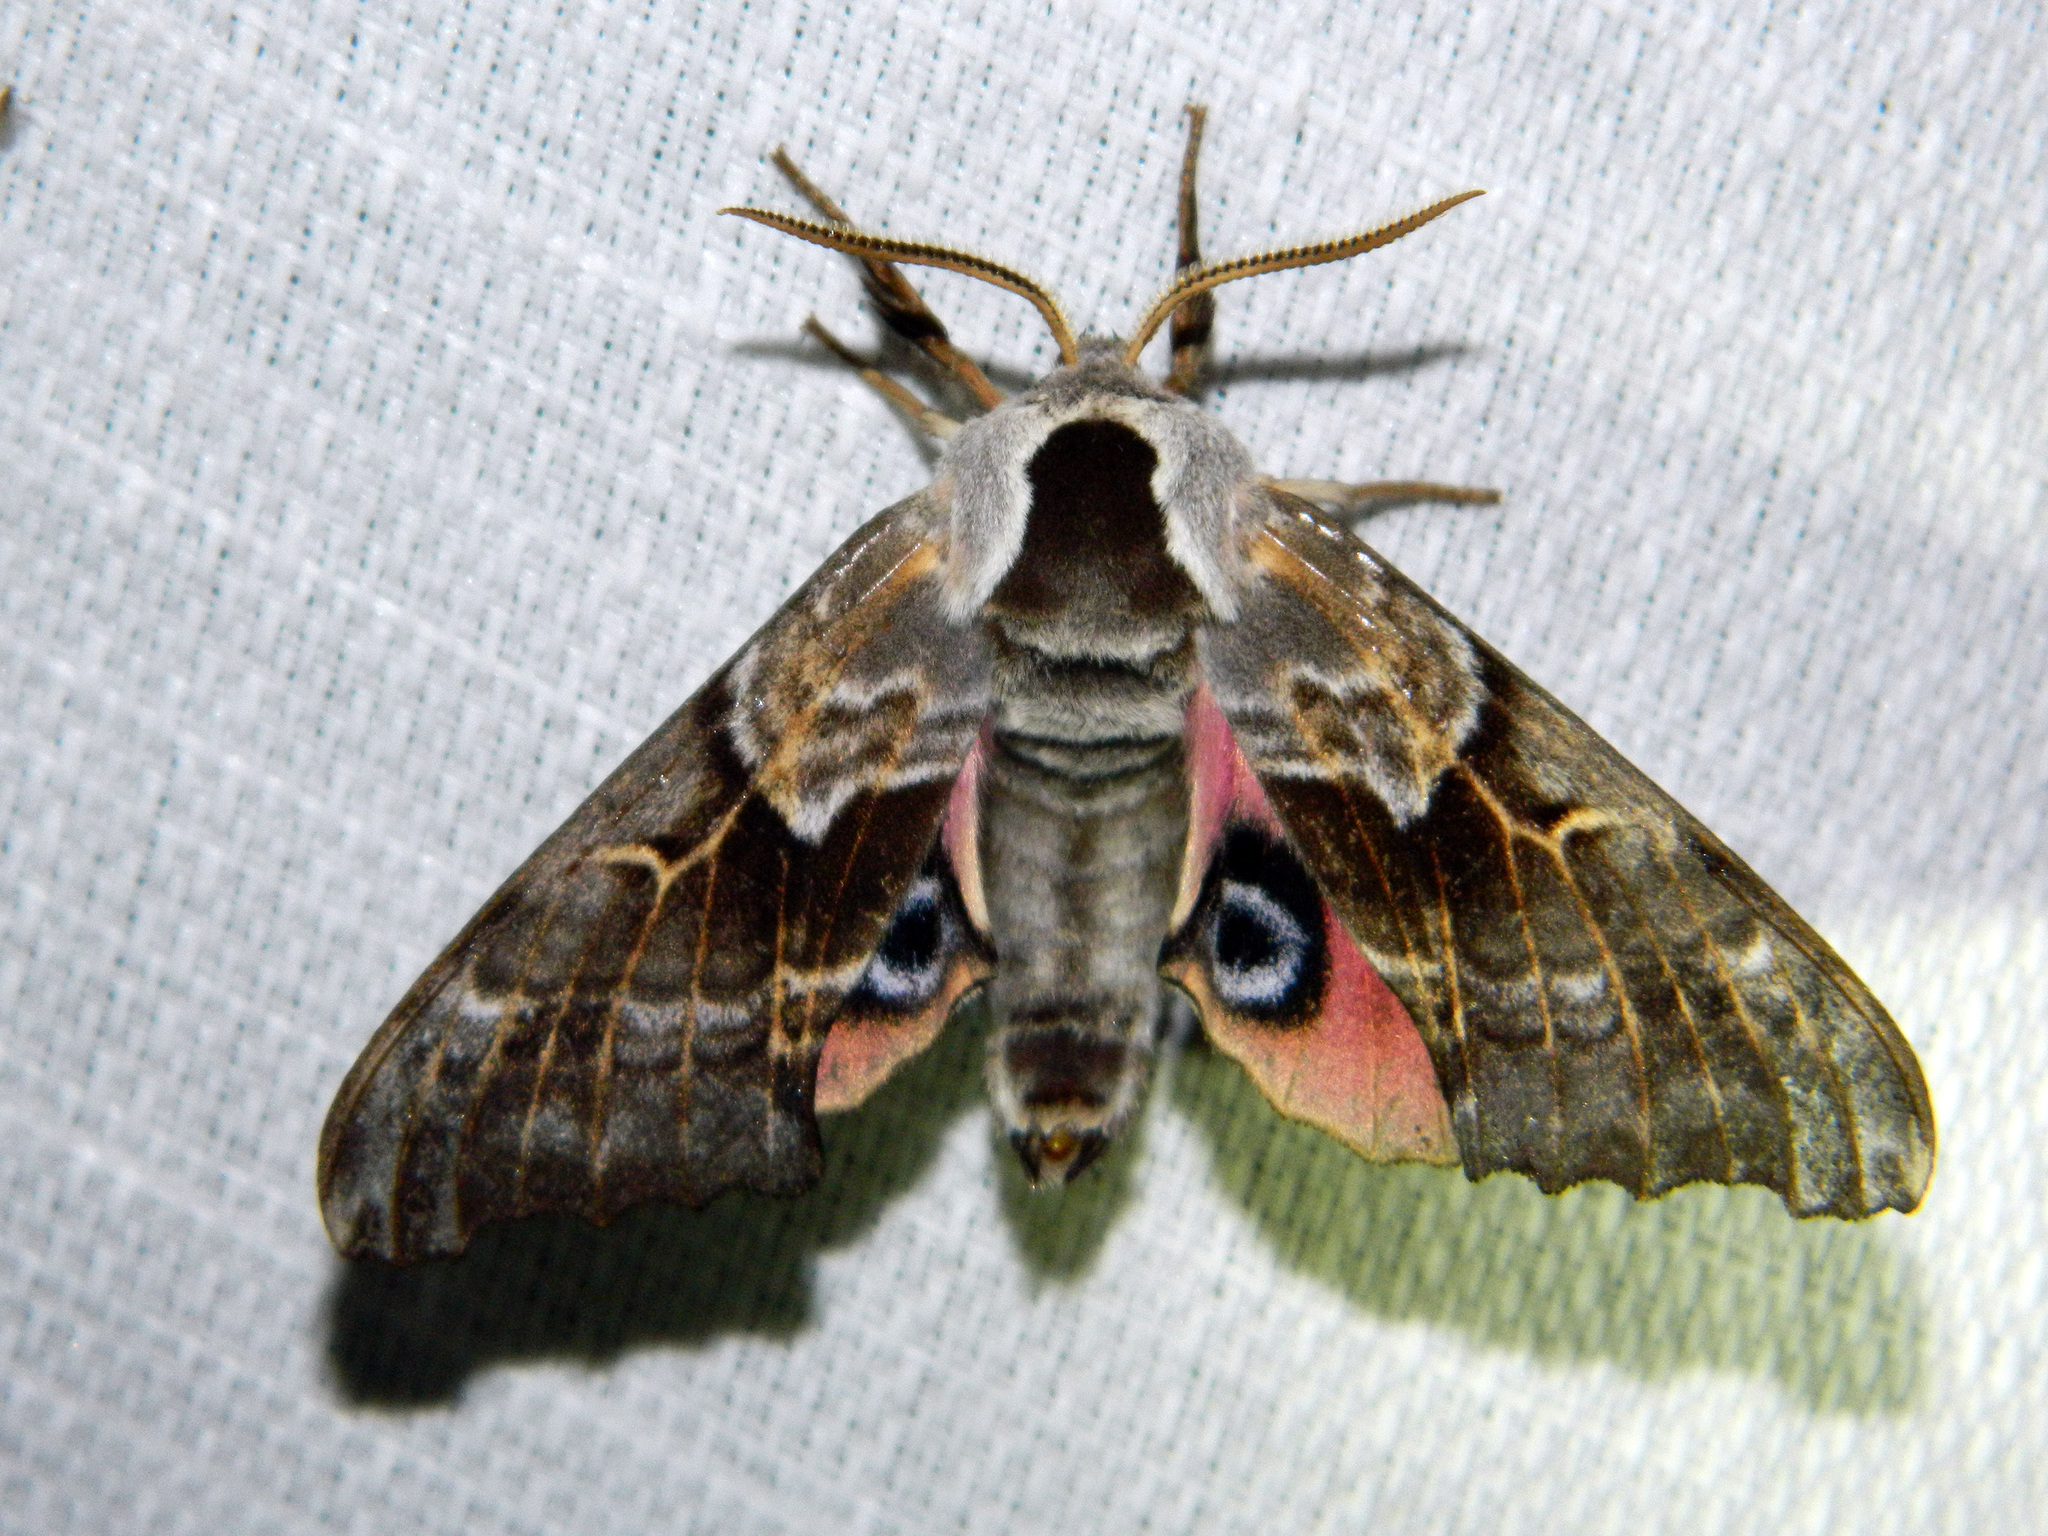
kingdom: Animalia
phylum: Arthropoda
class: Insecta
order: Lepidoptera
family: Sphingidae
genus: Smerinthus
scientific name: Smerinthus cerisyi
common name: Cerisy's sphinx moth
